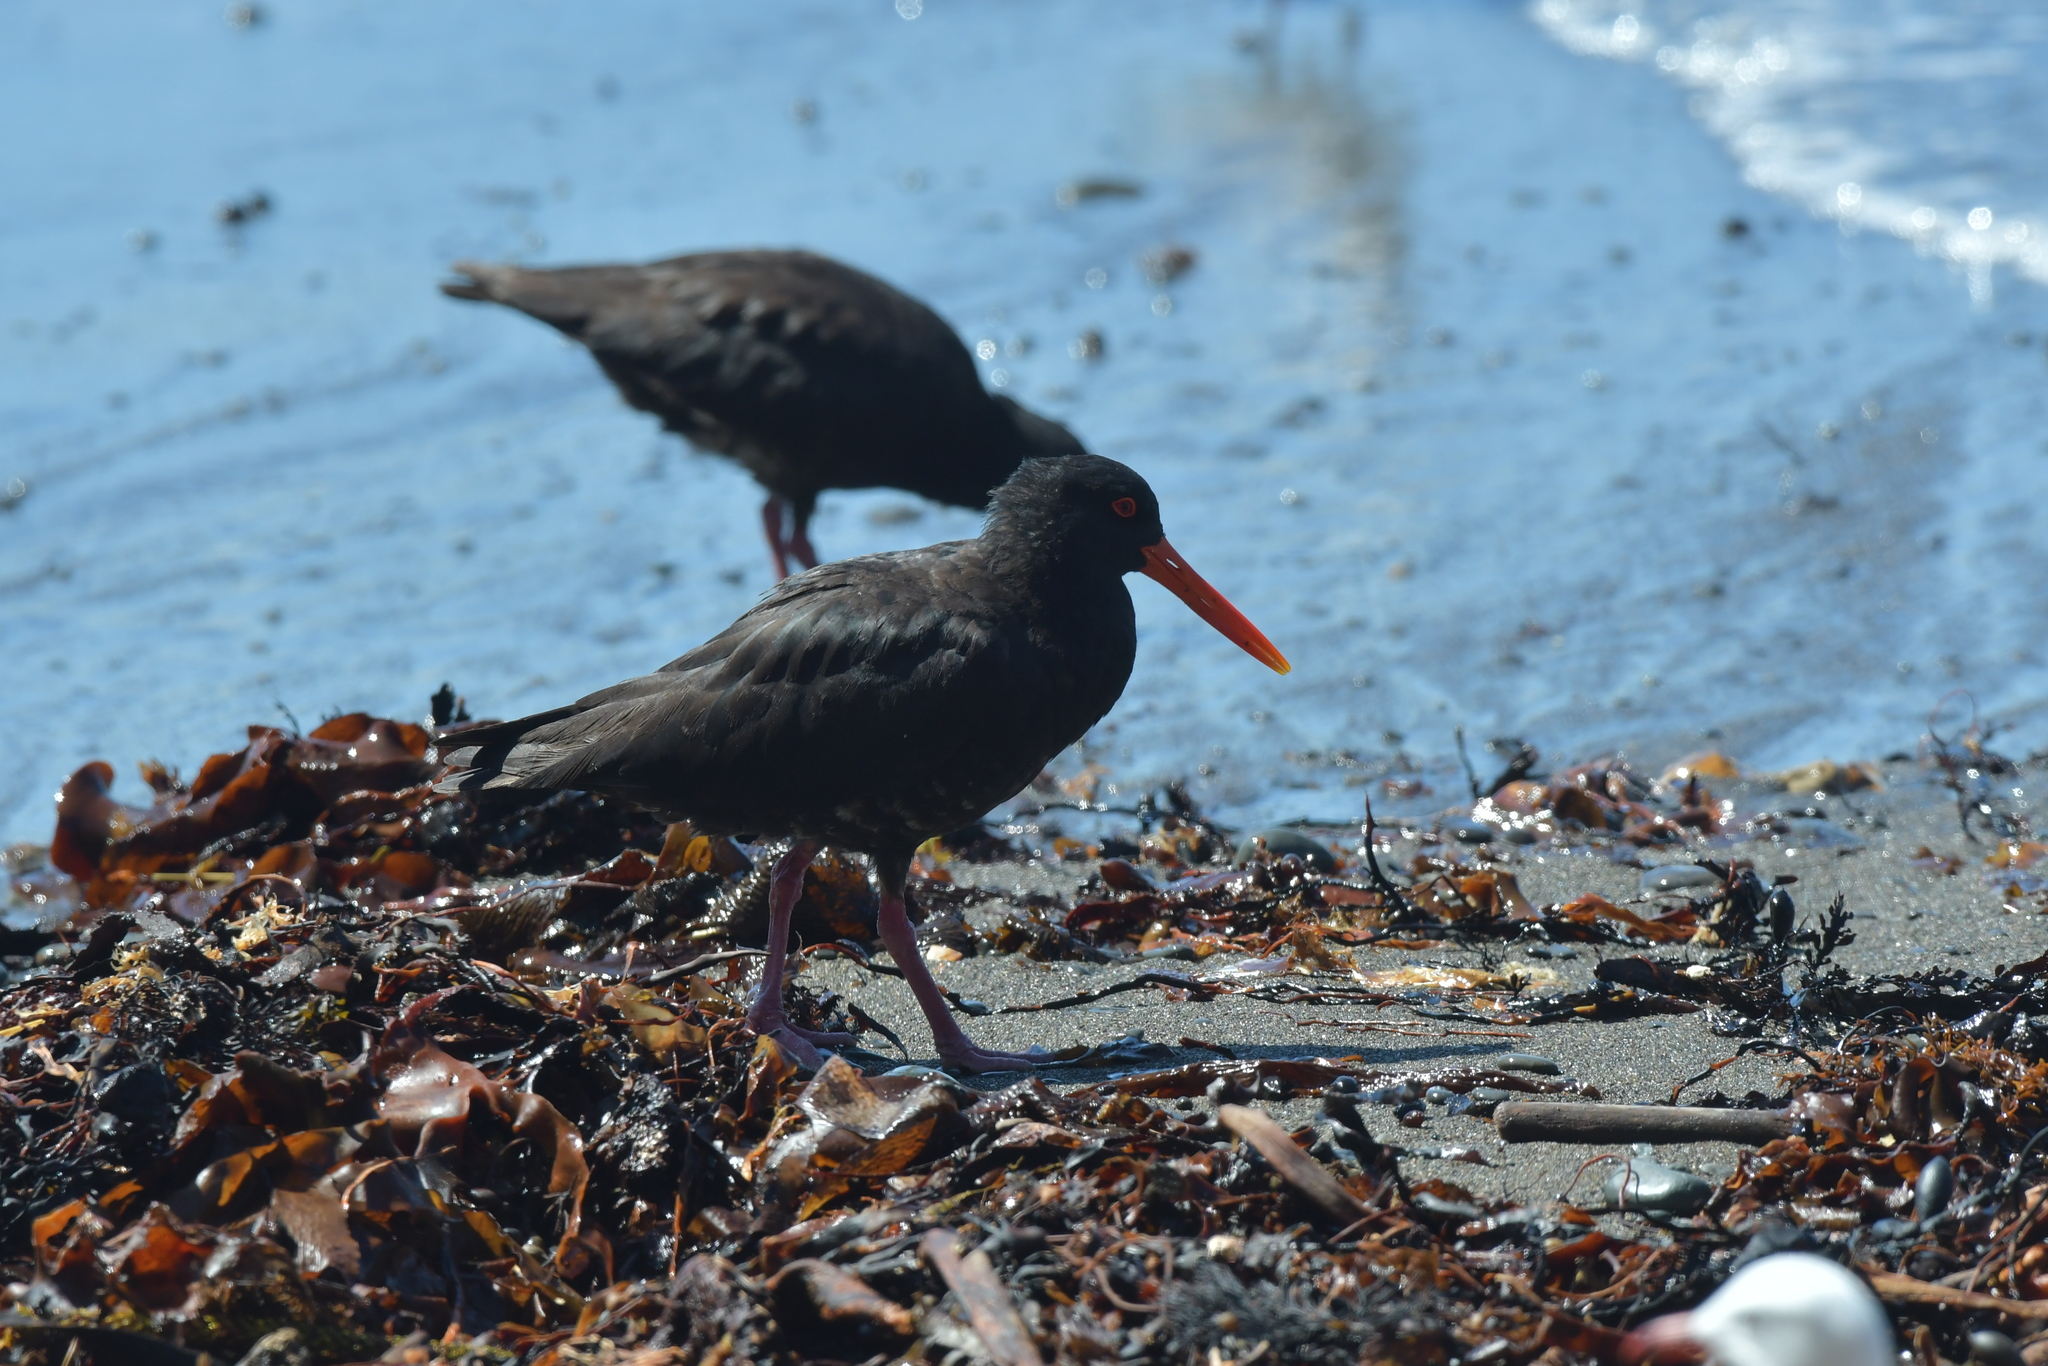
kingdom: Animalia
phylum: Chordata
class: Aves
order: Charadriiformes
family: Haematopodidae
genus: Haematopus
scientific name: Haematopus unicolor
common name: Variable oystercatcher
